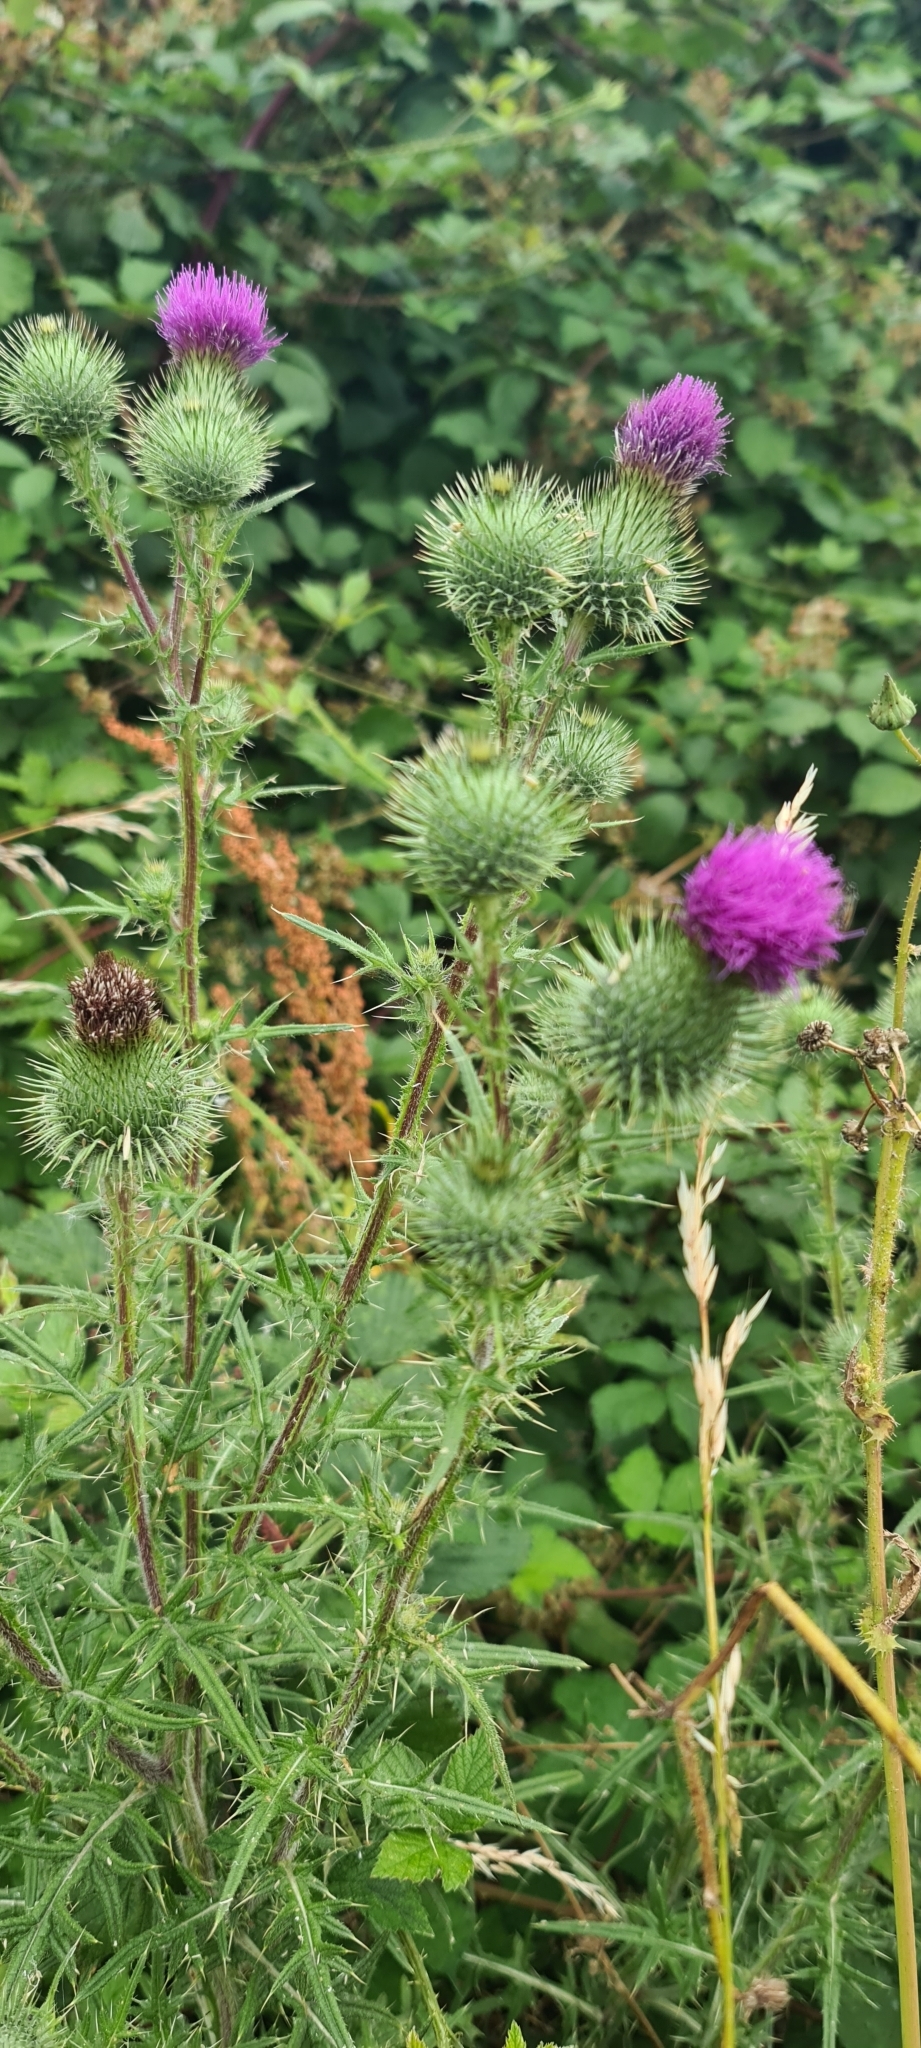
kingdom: Plantae
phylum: Tracheophyta
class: Magnoliopsida
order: Asterales
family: Asteraceae
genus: Cirsium
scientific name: Cirsium vulgare
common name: Bull thistle
